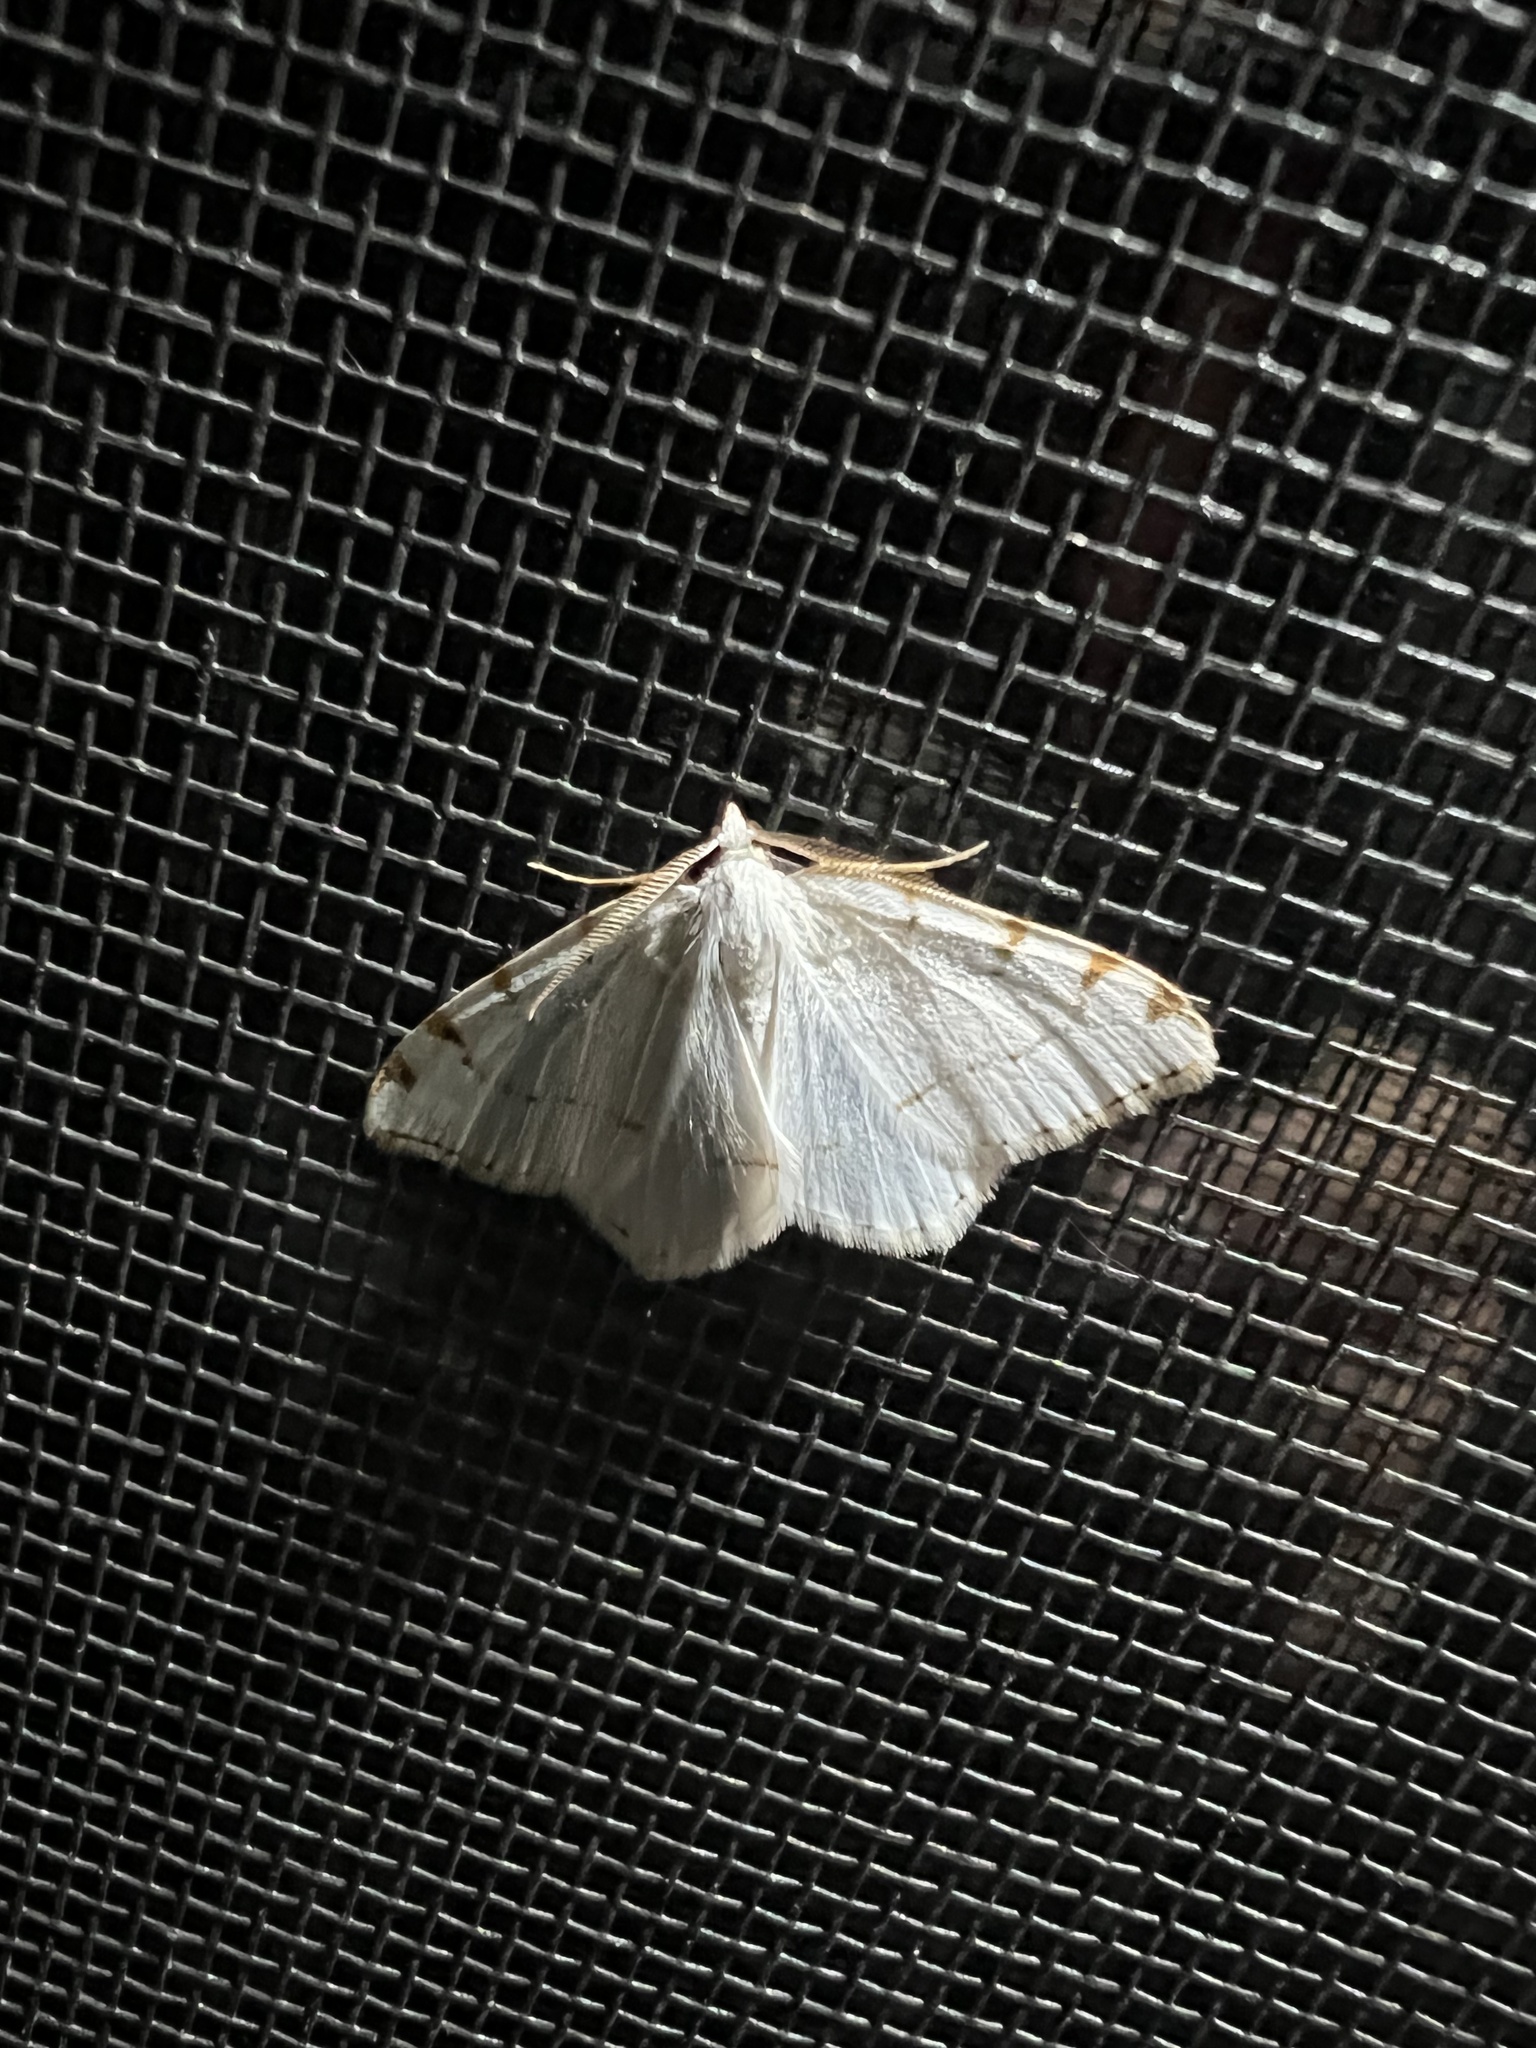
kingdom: Animalia
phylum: Arthropoda
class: Insecta
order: Lepidoptera
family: Geometridae
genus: Macaria
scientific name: Macaria pustularia
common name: Lesser maple spanworm moth
